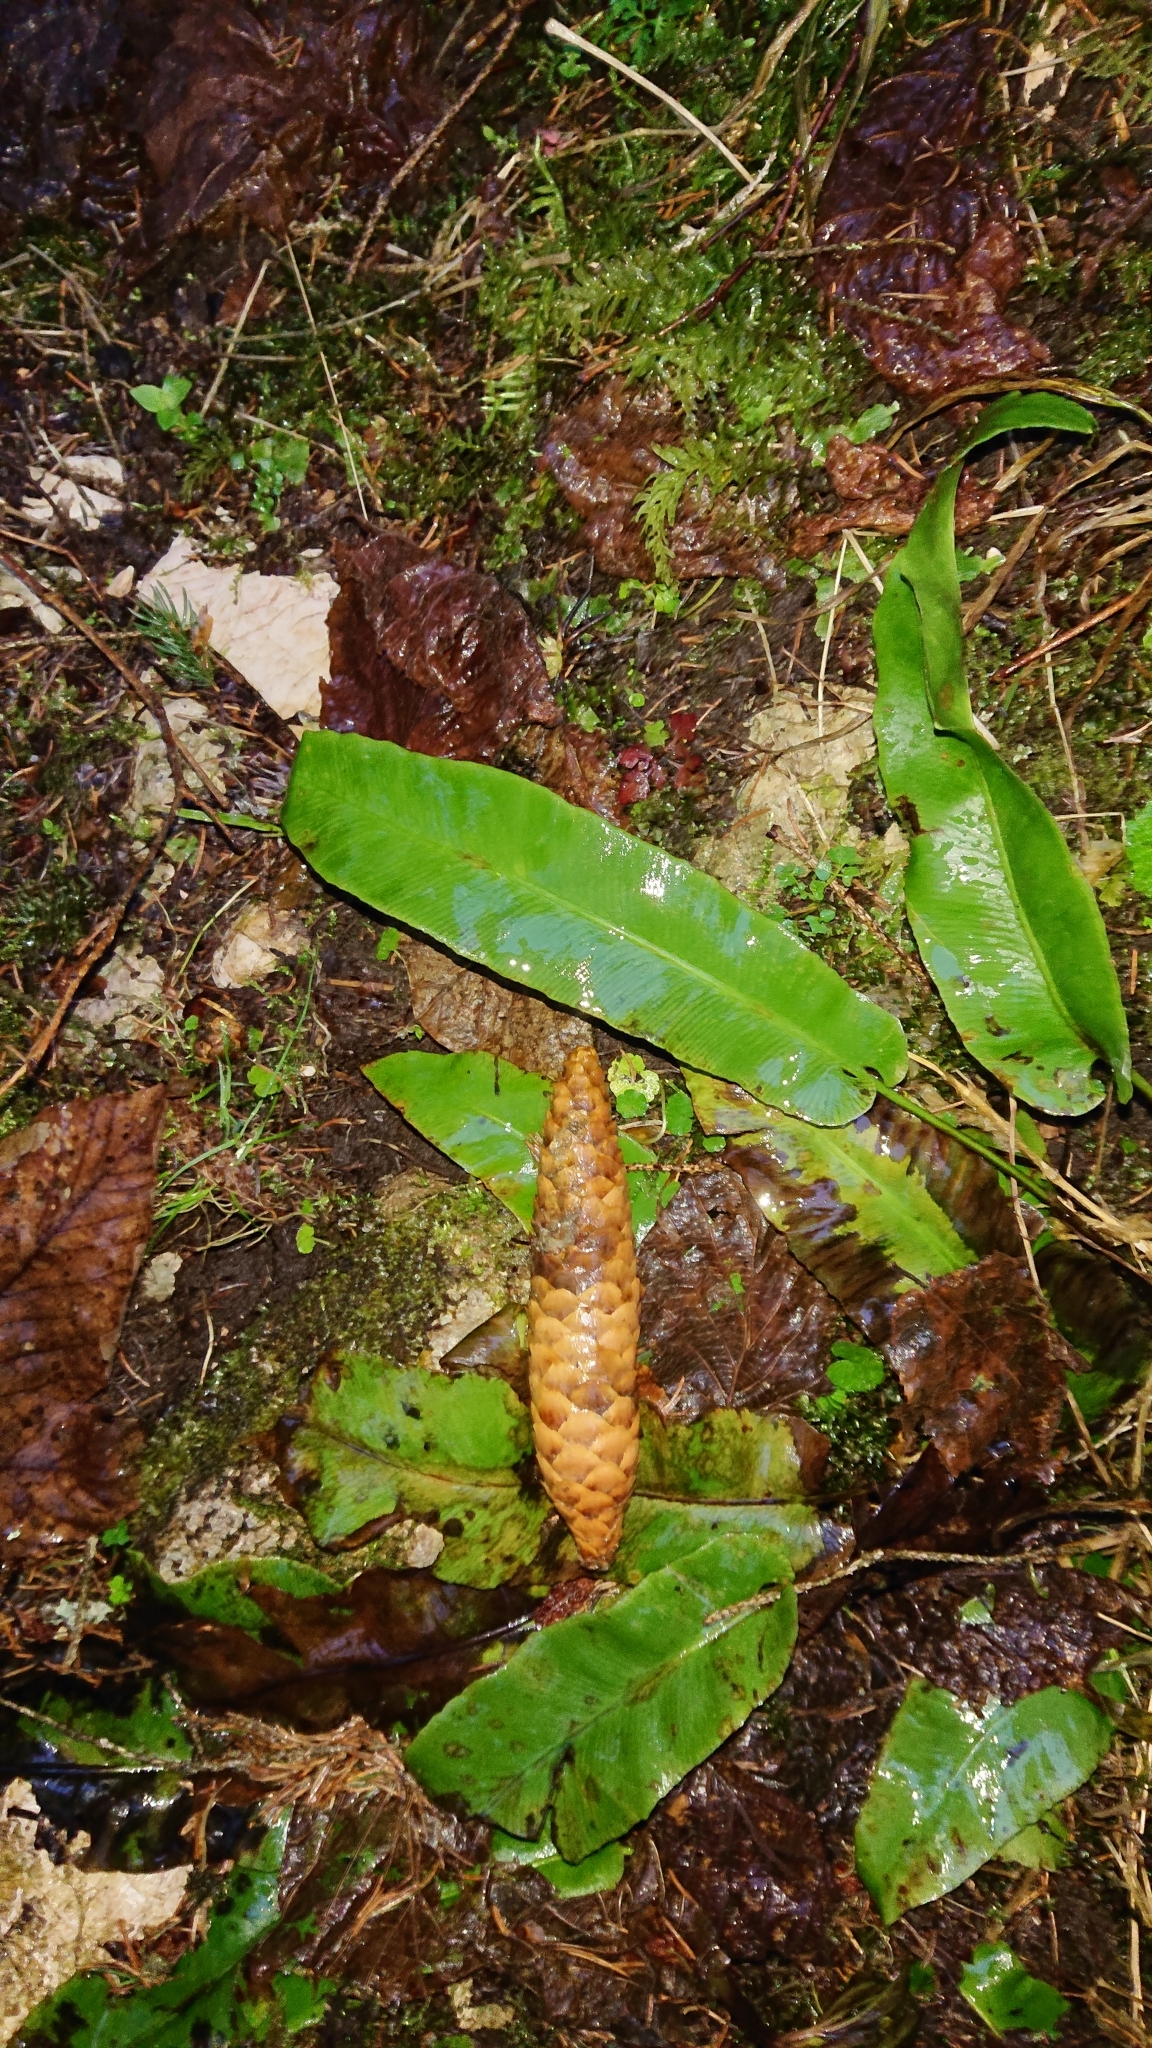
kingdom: Plantae
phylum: Tracheophyta
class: Polypodiopsida
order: Polypodiales
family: Aspleniaceae
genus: Asplenium
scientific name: Asplenium scolopendrium
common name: Hart's-tongue fern
